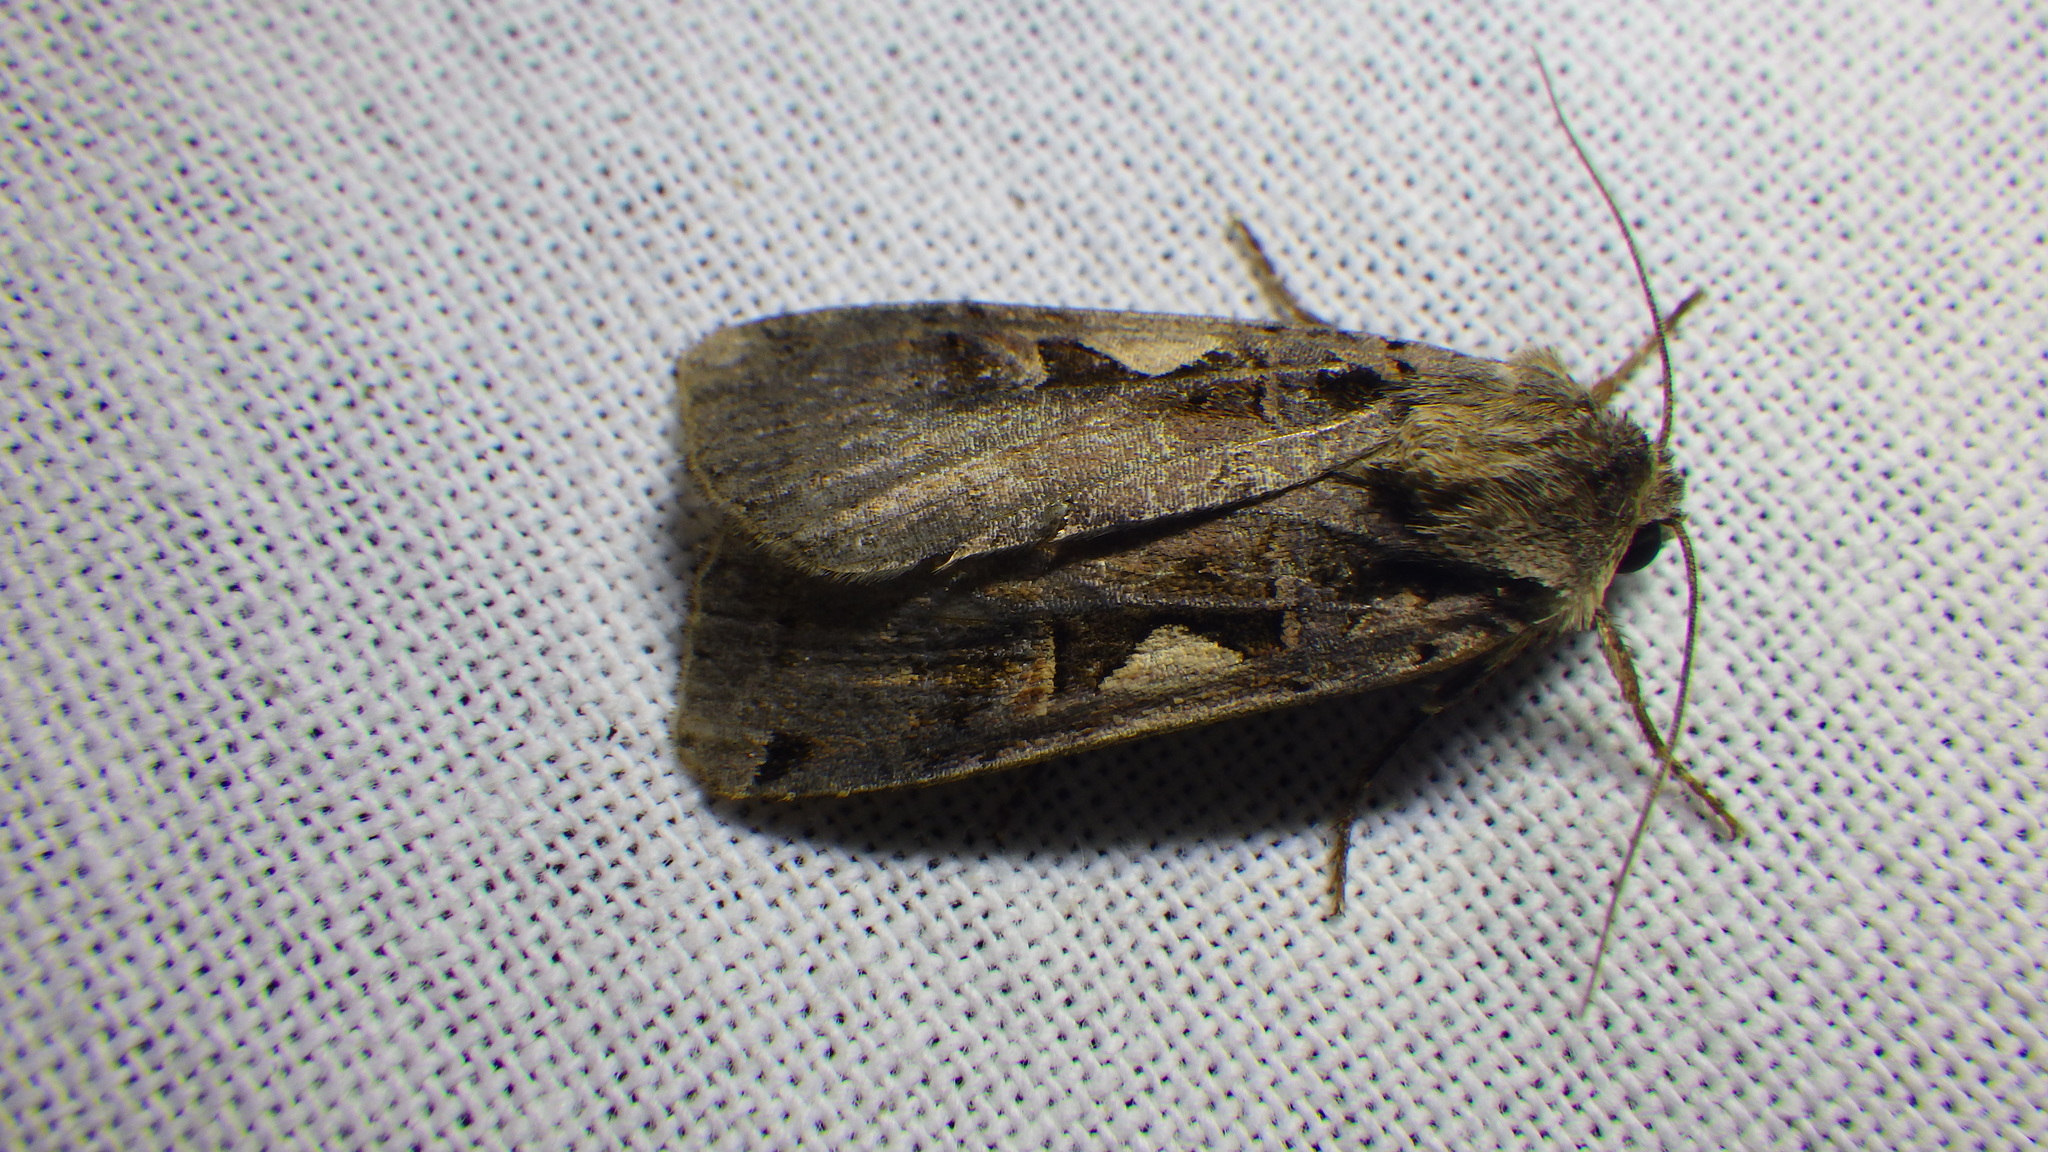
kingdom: Animalia
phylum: Arthropoda
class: Insecta
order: Lepidoptera
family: Noctuidae
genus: Xestia
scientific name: Xestia c-nigrum
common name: Setaceous hebrew character
